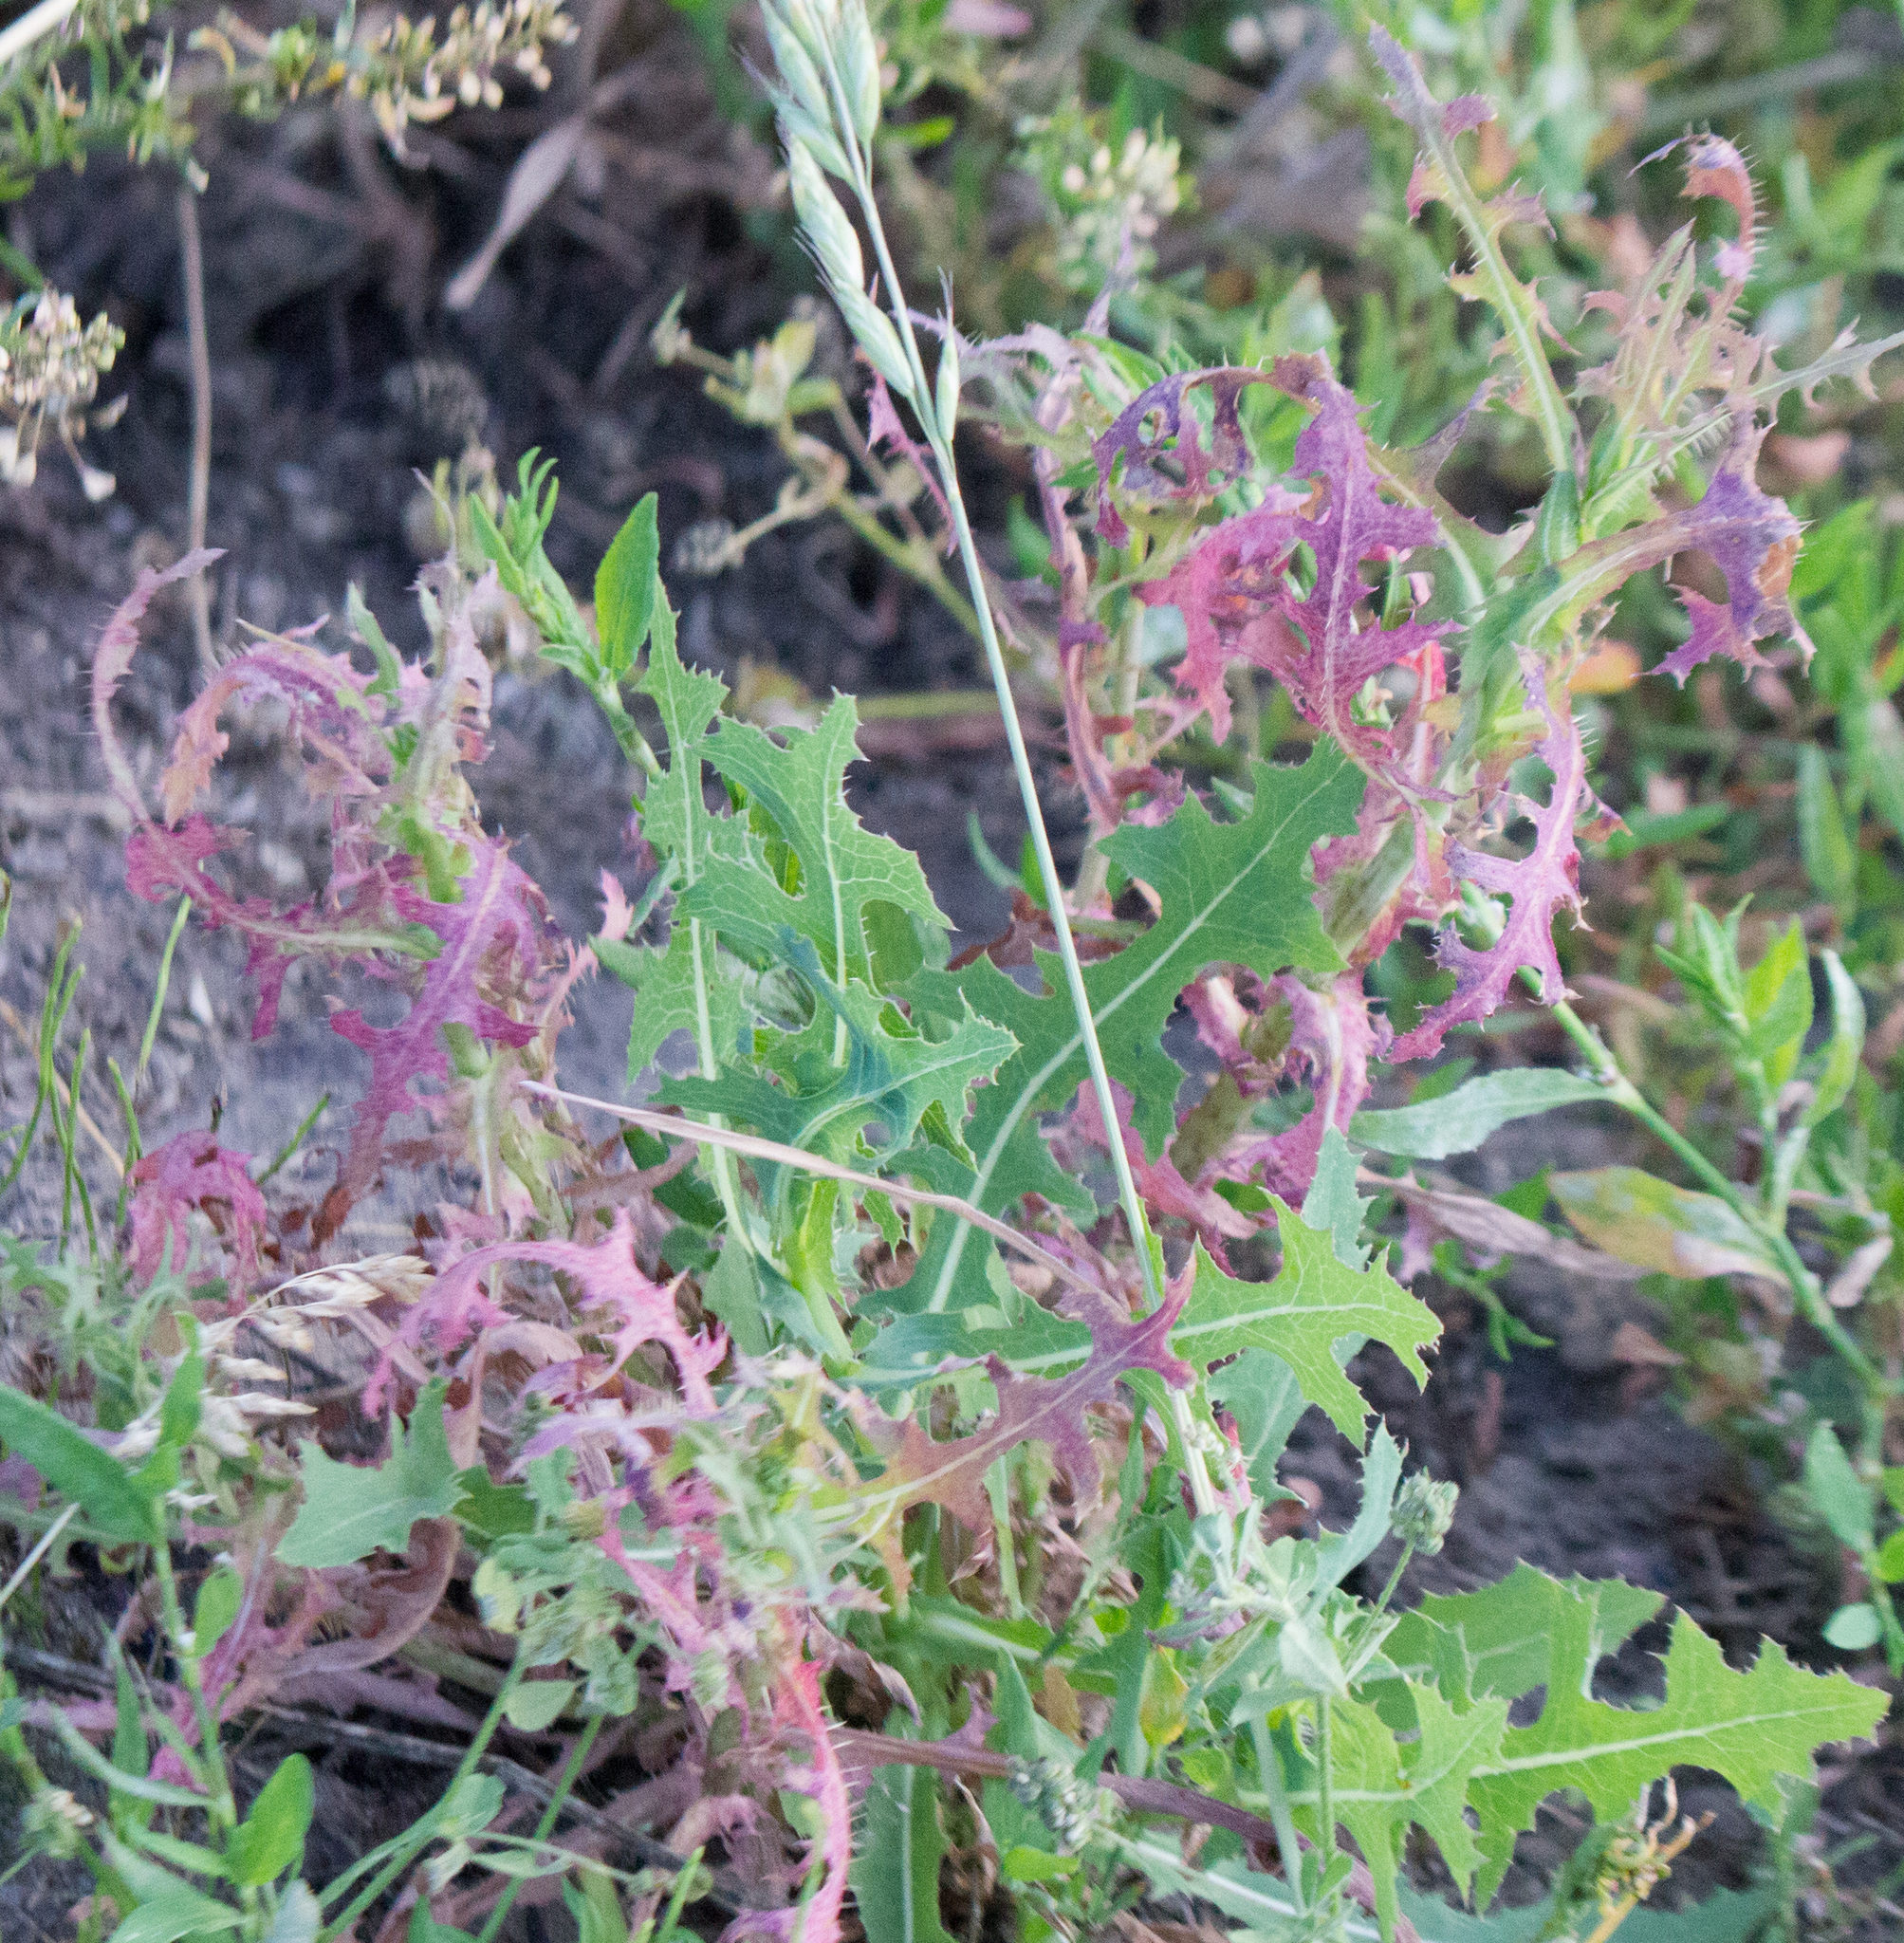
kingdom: Plantae
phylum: Tracheophyta
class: Magnoliopsida
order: Asterales
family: Asteraceae
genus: Lactuca
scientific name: Lactuca serriola
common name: Prickly lettuce
